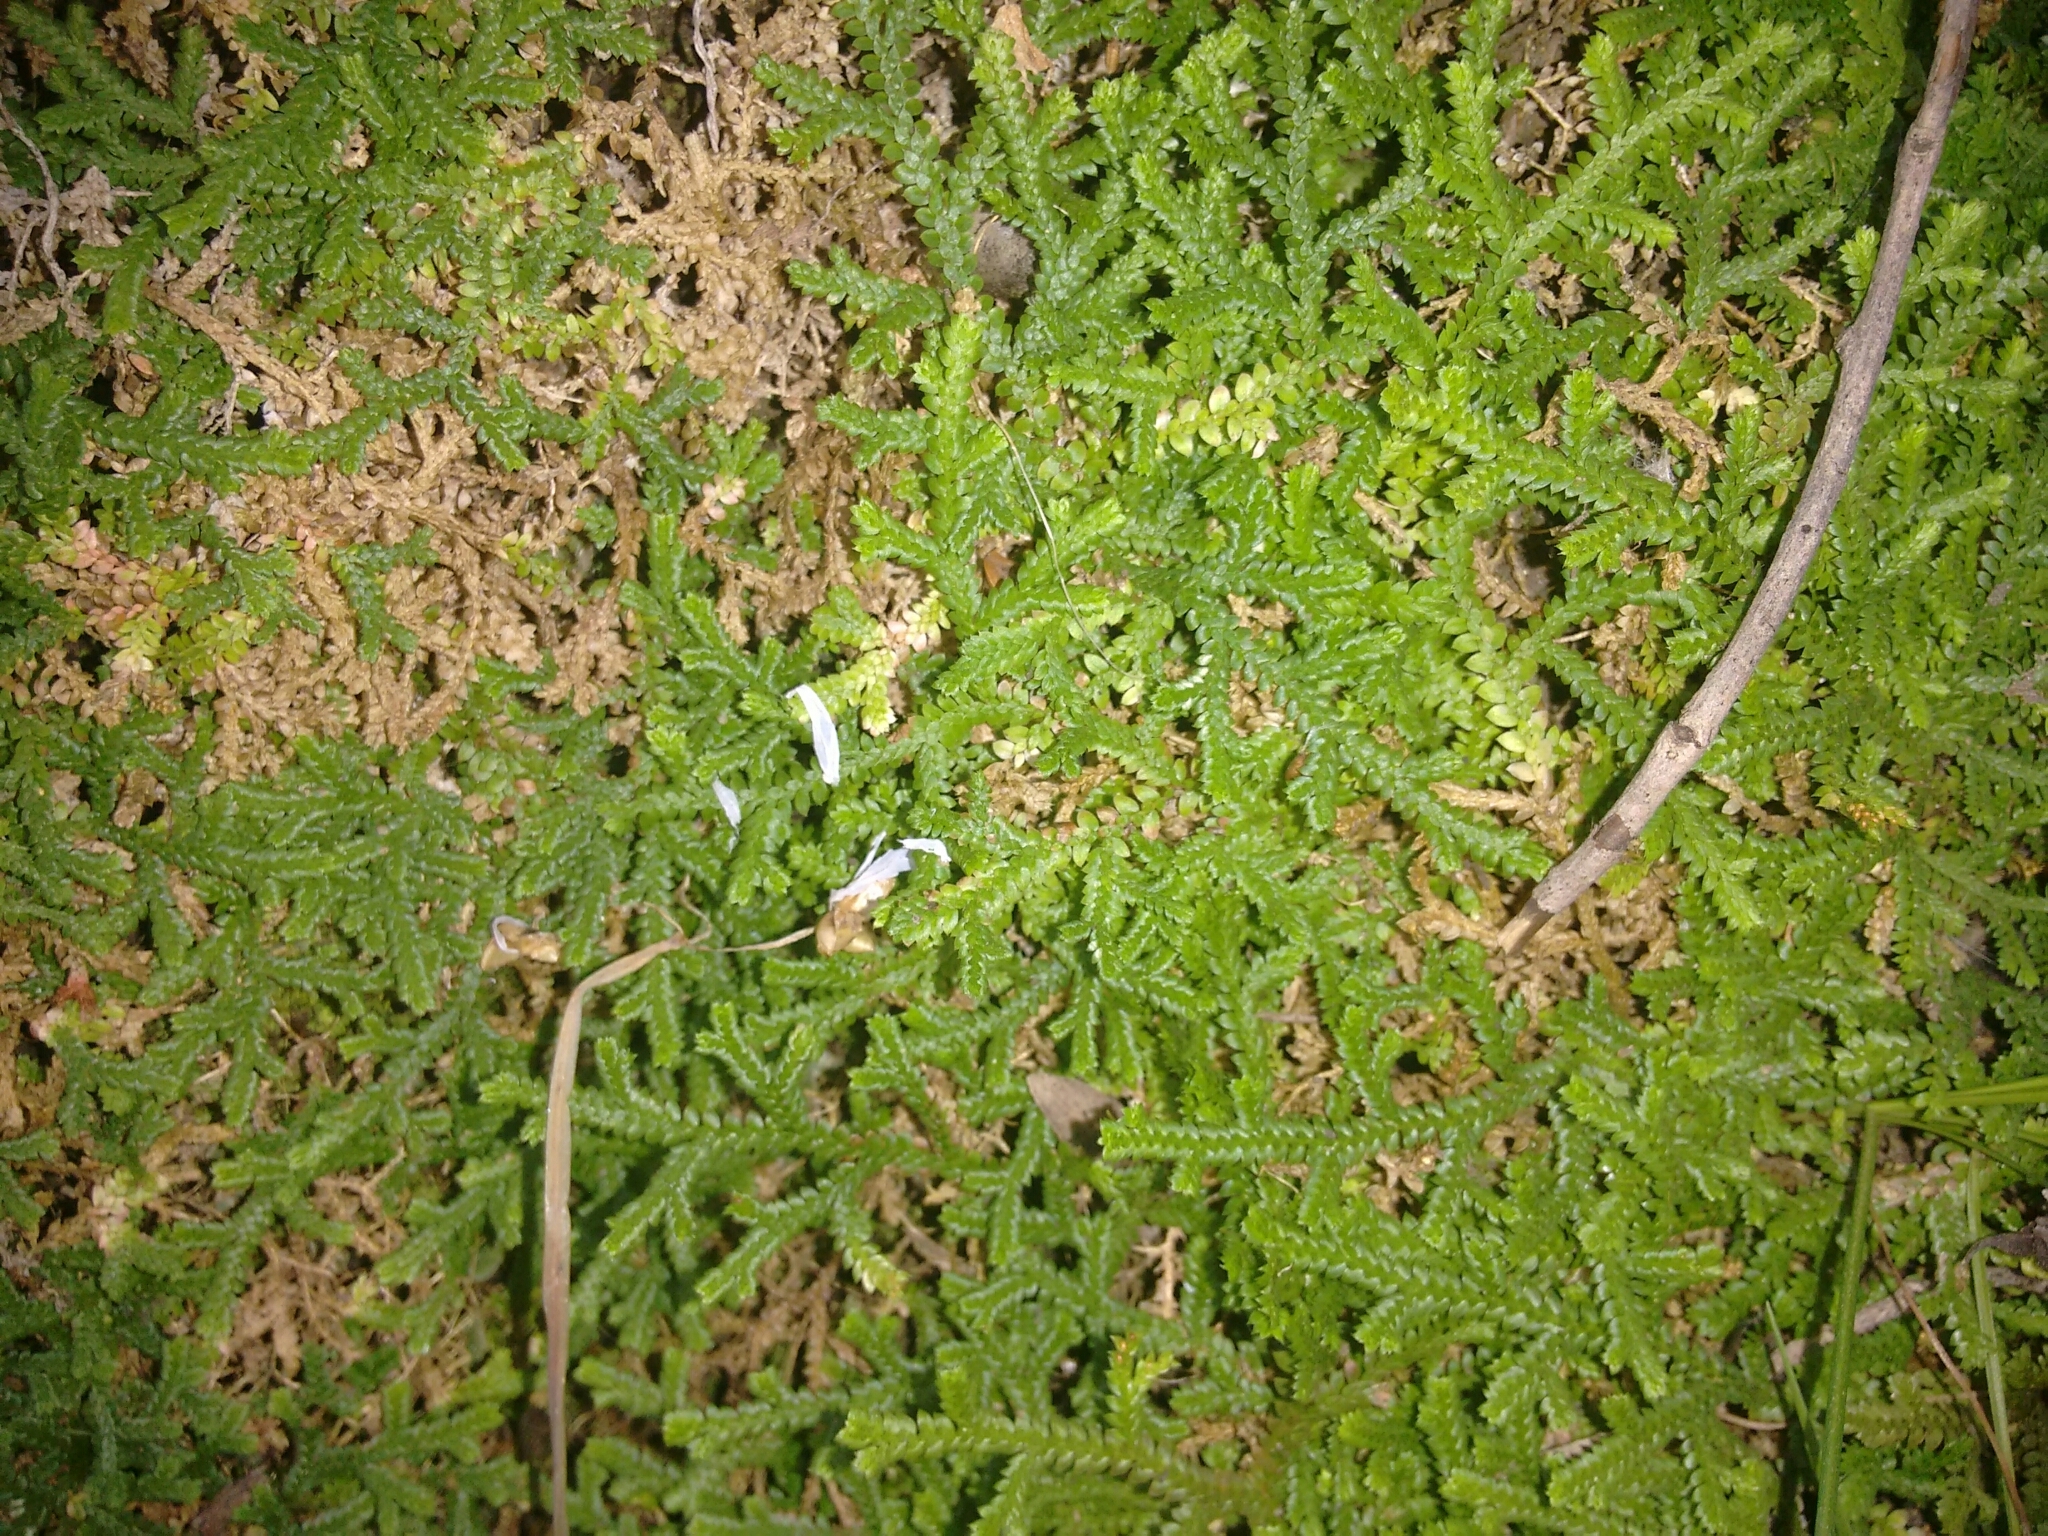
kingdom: Plantae
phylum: Tracheophyta
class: Lycopodiopsida
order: Selaginellales
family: Selaginellaceae
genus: Selaginella
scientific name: Selaginella denticulata
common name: Toothed-leaved clubmoss
